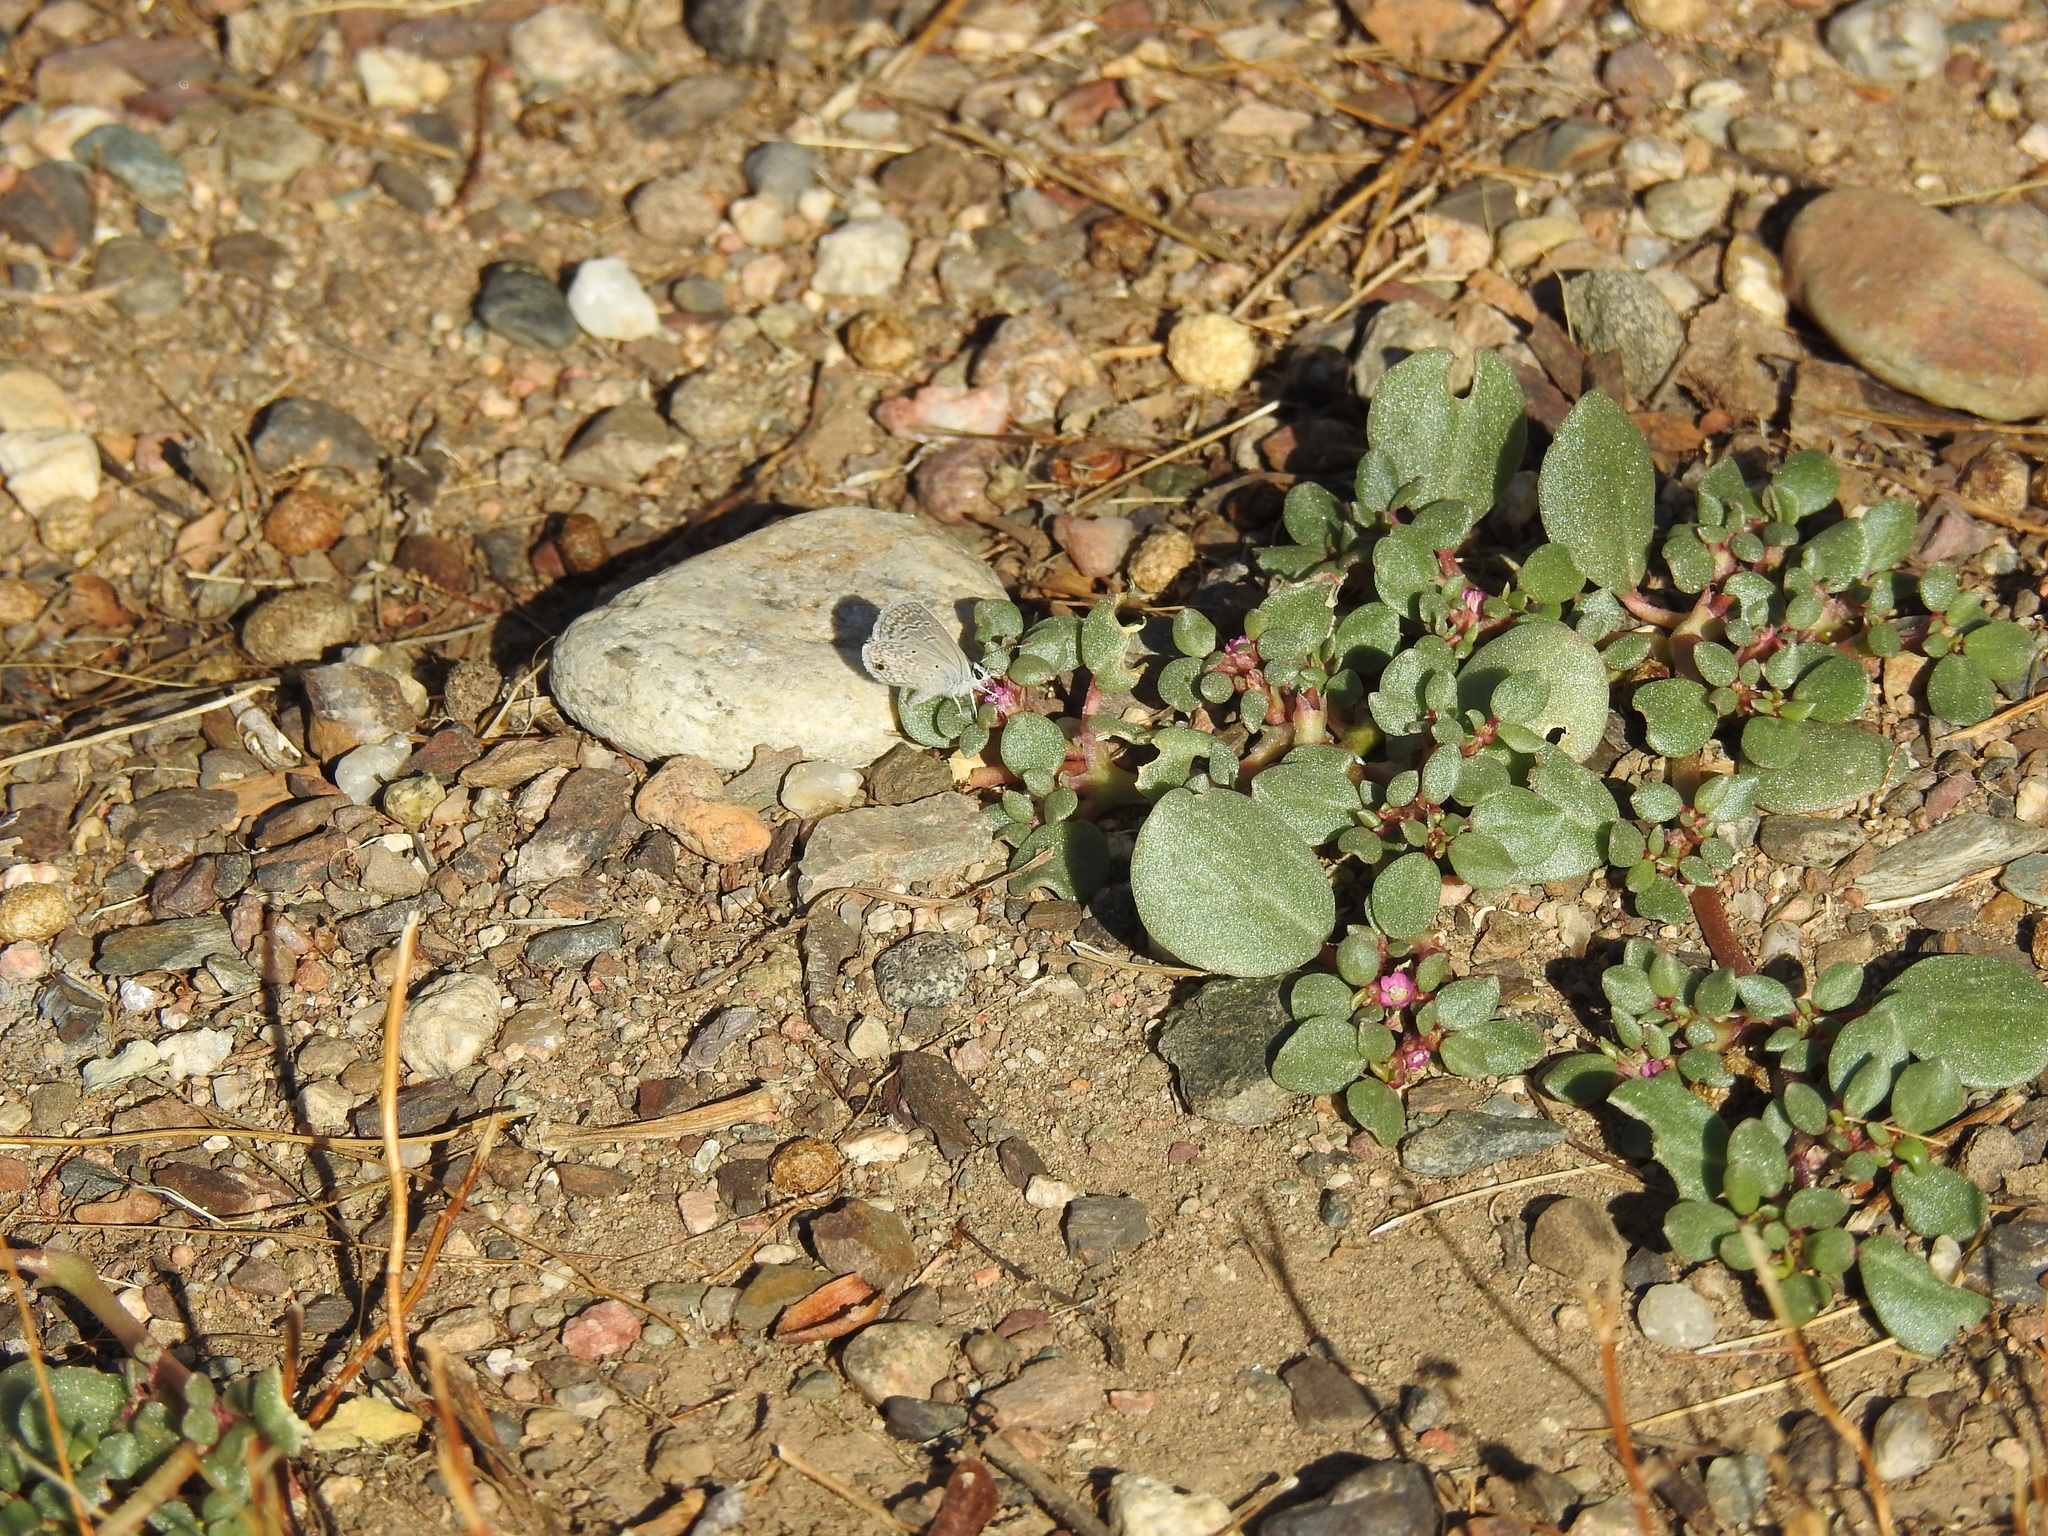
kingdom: Animalia
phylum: Arthropoda
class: Insecta
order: Lepidoptera
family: Lycaenidae
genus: Hemiargus
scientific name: Hemiargus ceraunus
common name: Ceraunus blue
